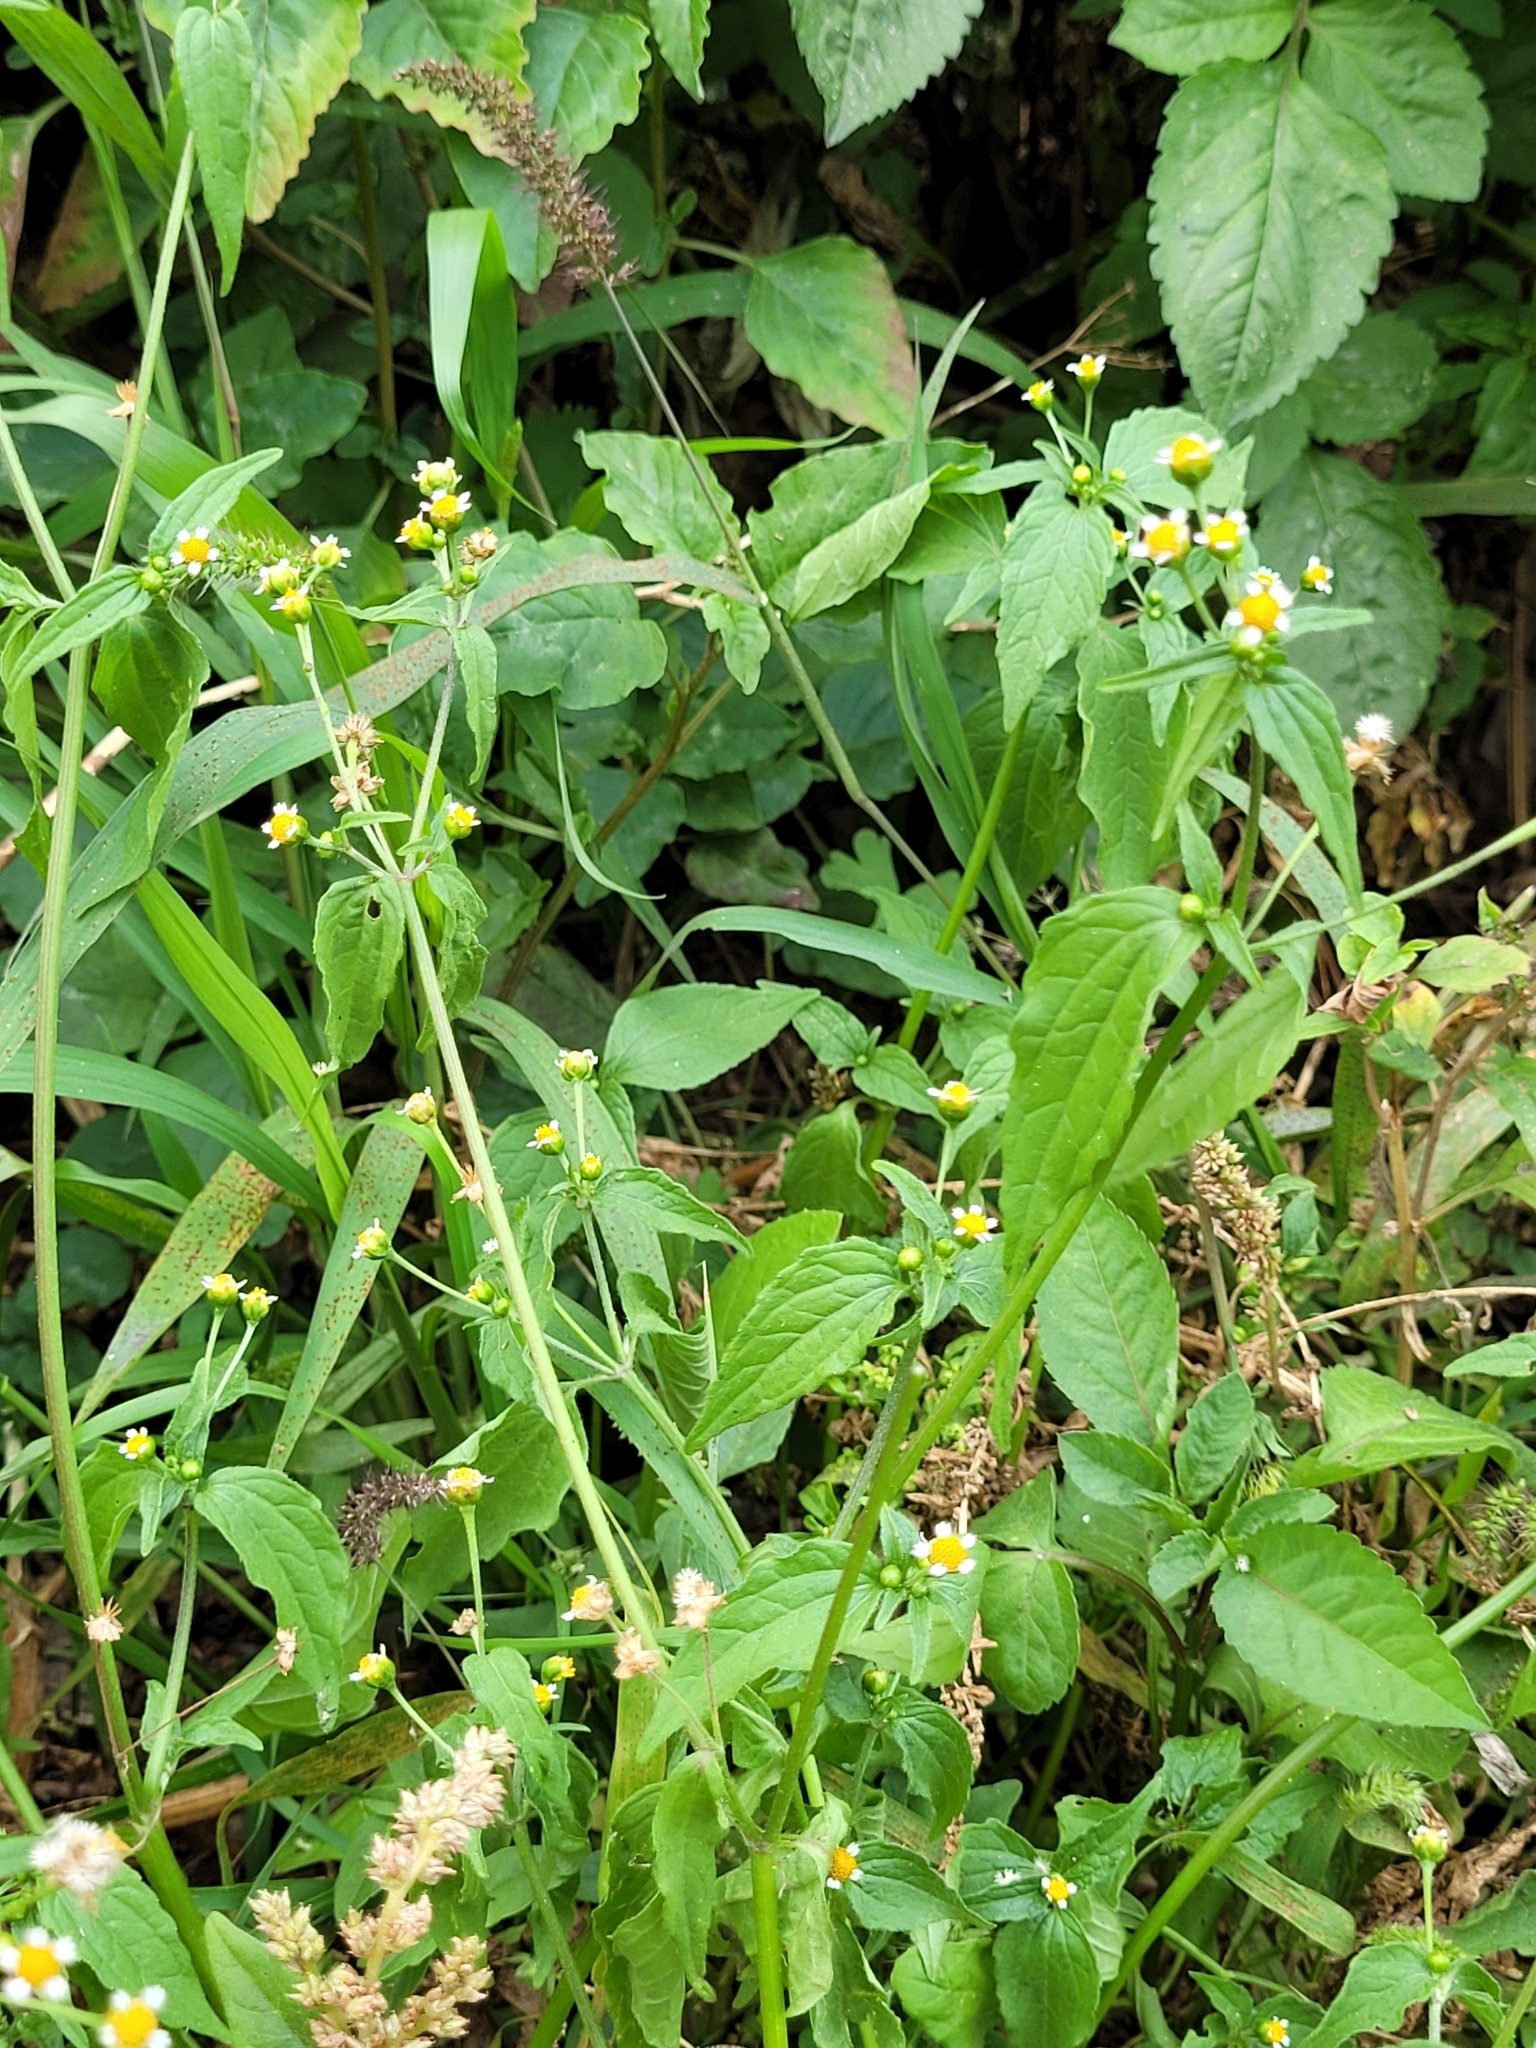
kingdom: Plantae
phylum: Tracheophyta
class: Magnoliopsida
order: Asterales
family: Asteraceae
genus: Galinsoga
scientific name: Galinsoga parviflora
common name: Gallant soldier
